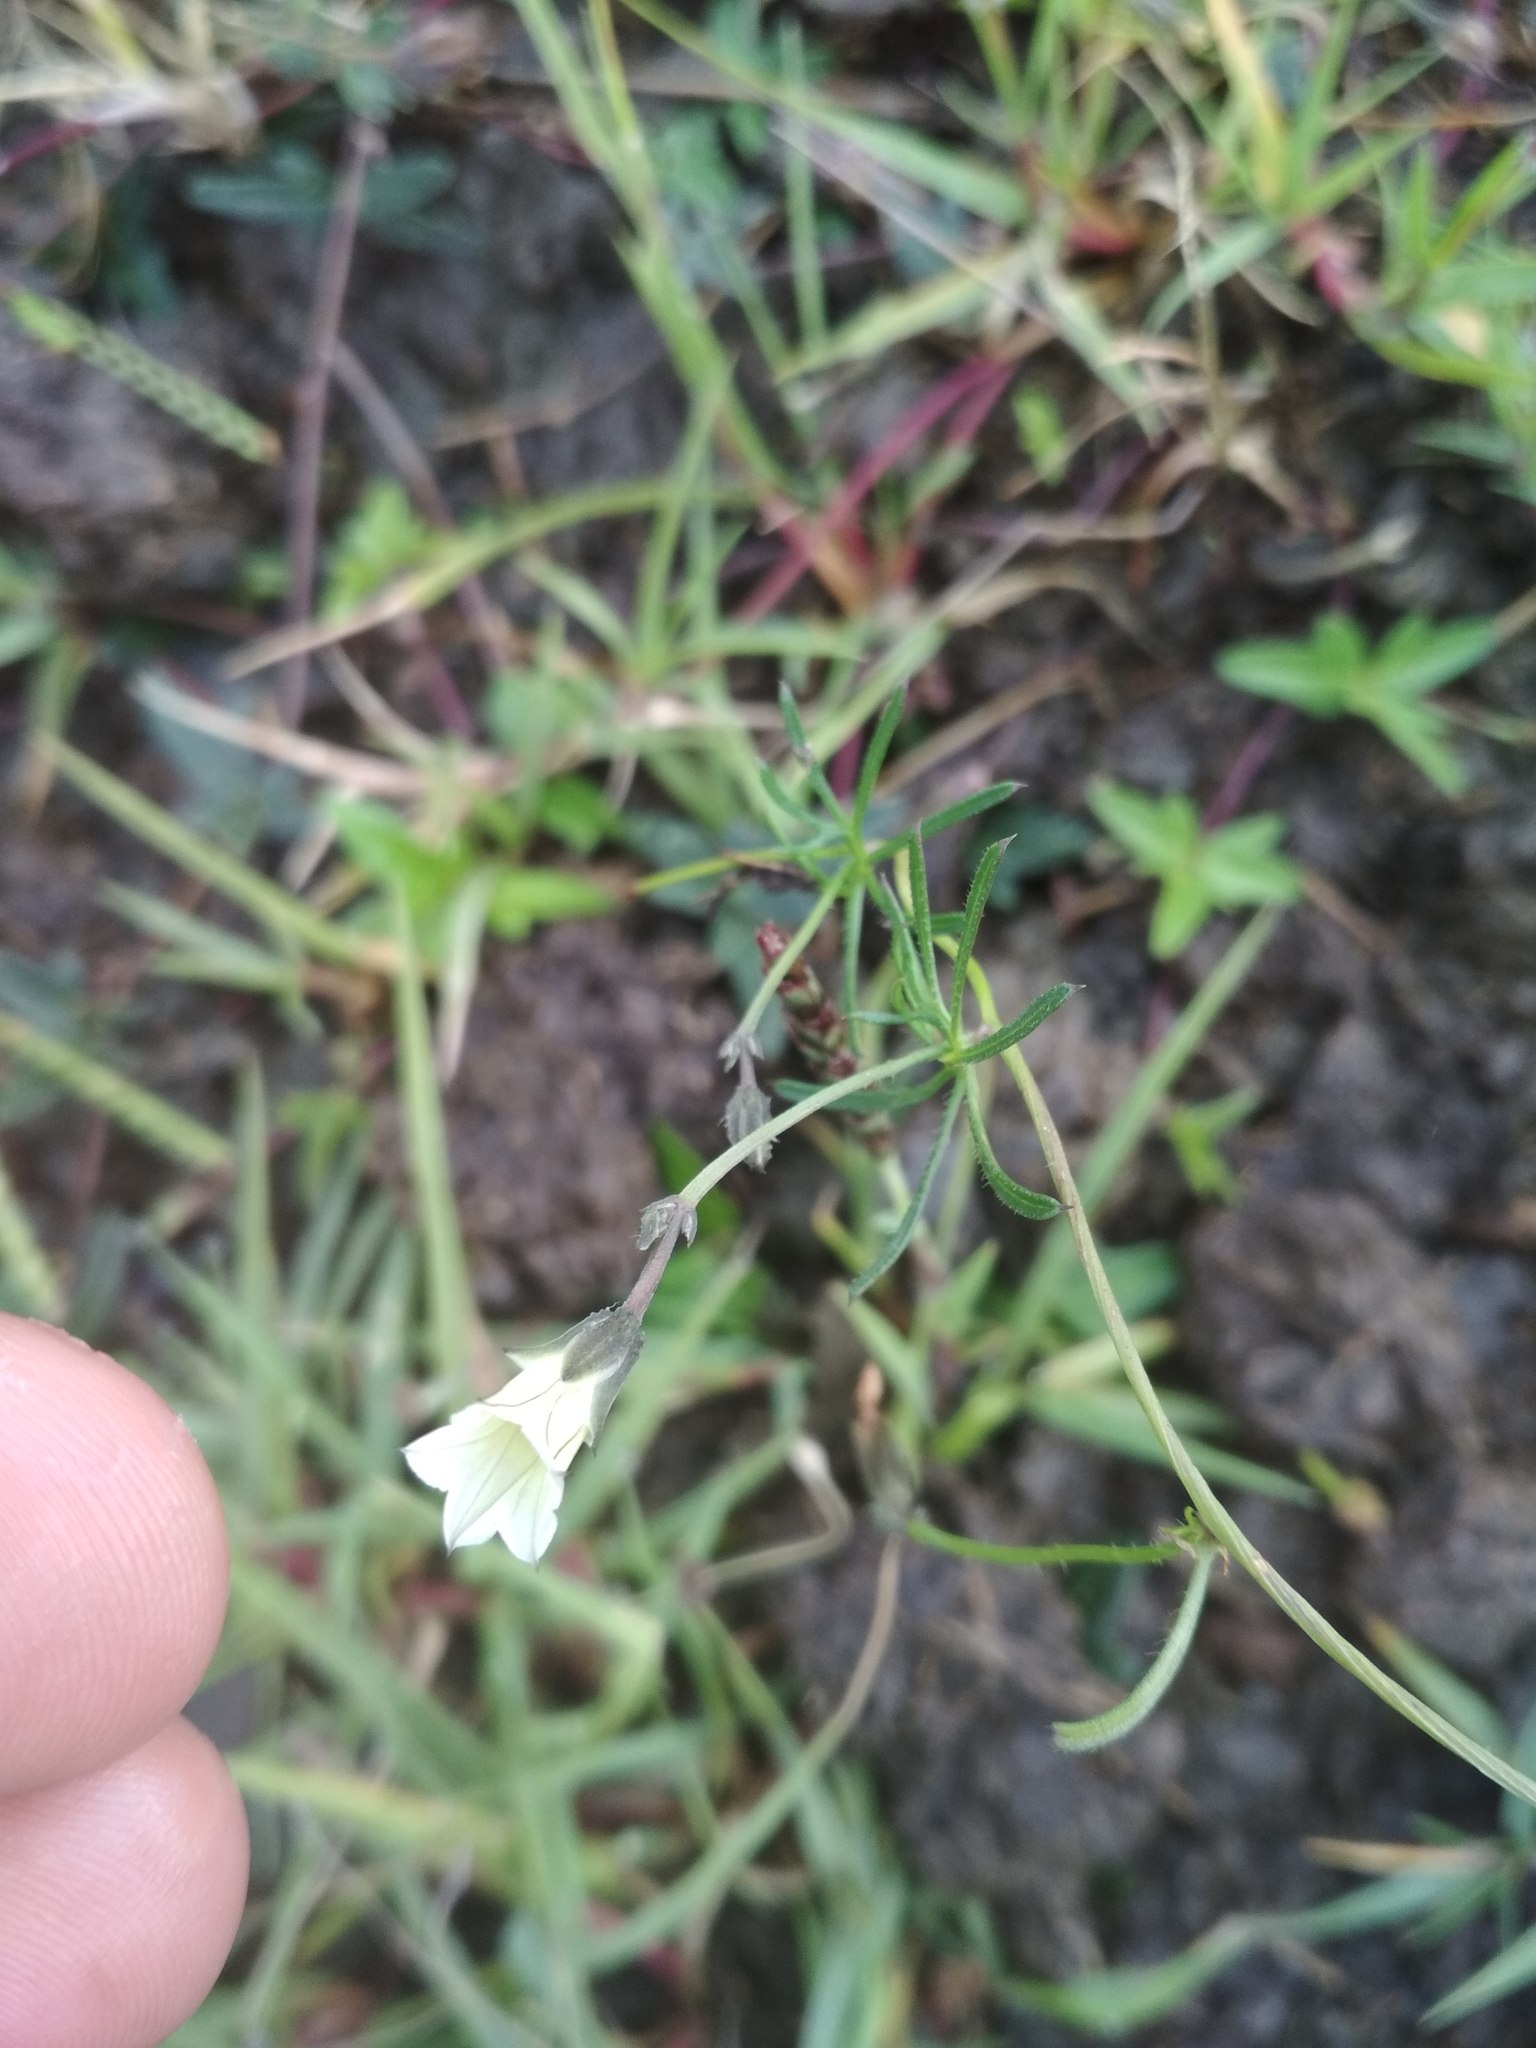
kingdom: Plantae
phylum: Tracheophyta
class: Magnoliopsida
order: Solanales
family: Convolvulaceae
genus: Ipomoea
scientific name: Ipomoea costellata
